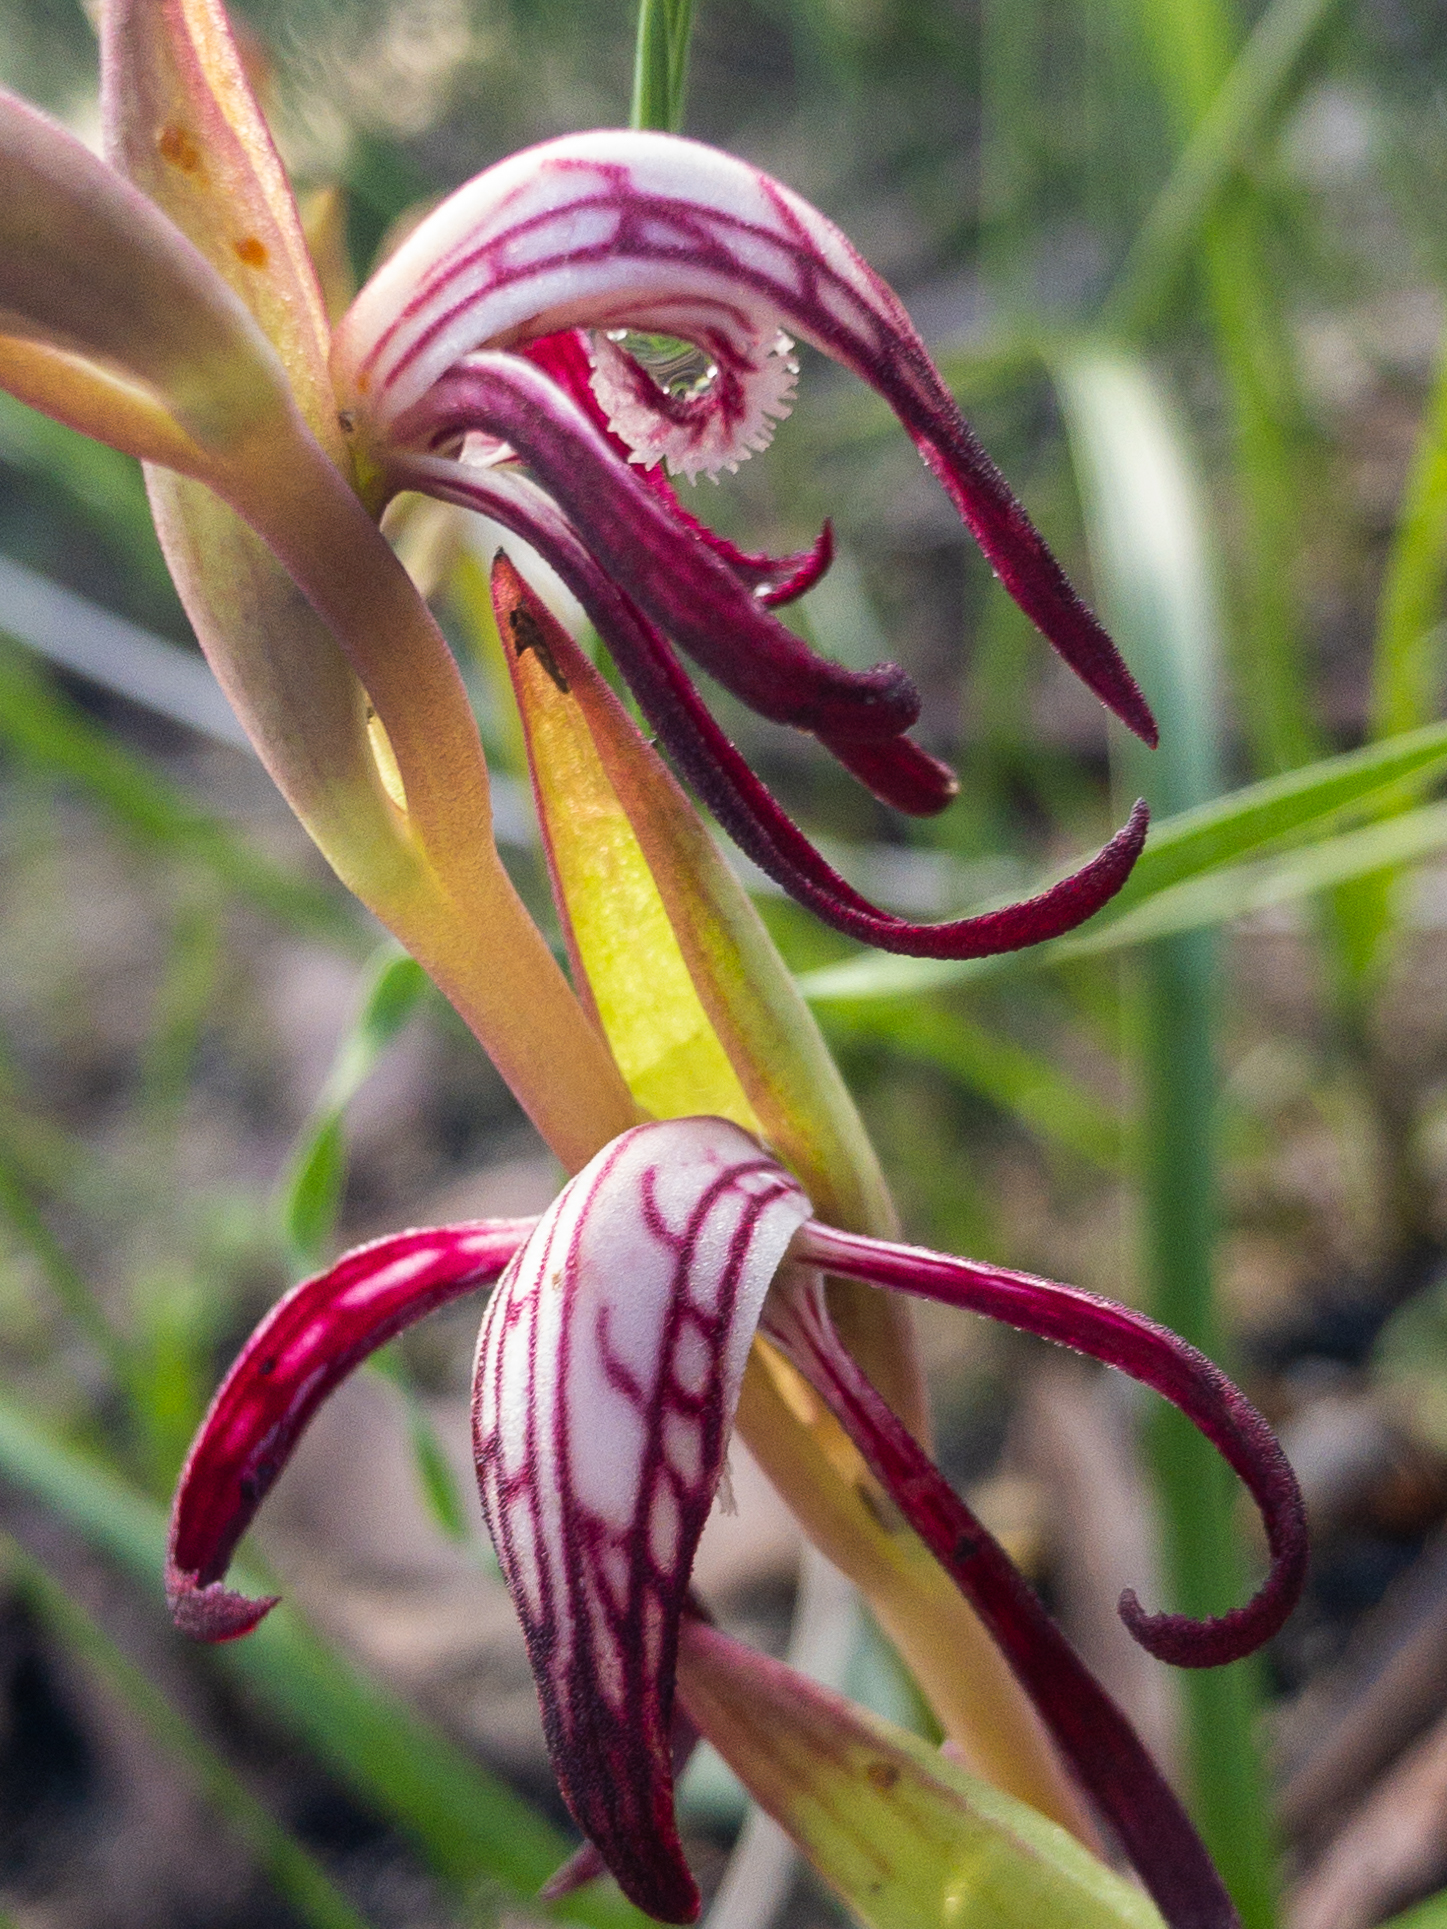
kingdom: Plantae
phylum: Tracheophyta
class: Liliopsida
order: Asparagales
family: Orchidaceae
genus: Pyrorchis
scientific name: Pyrorchis nigricans
